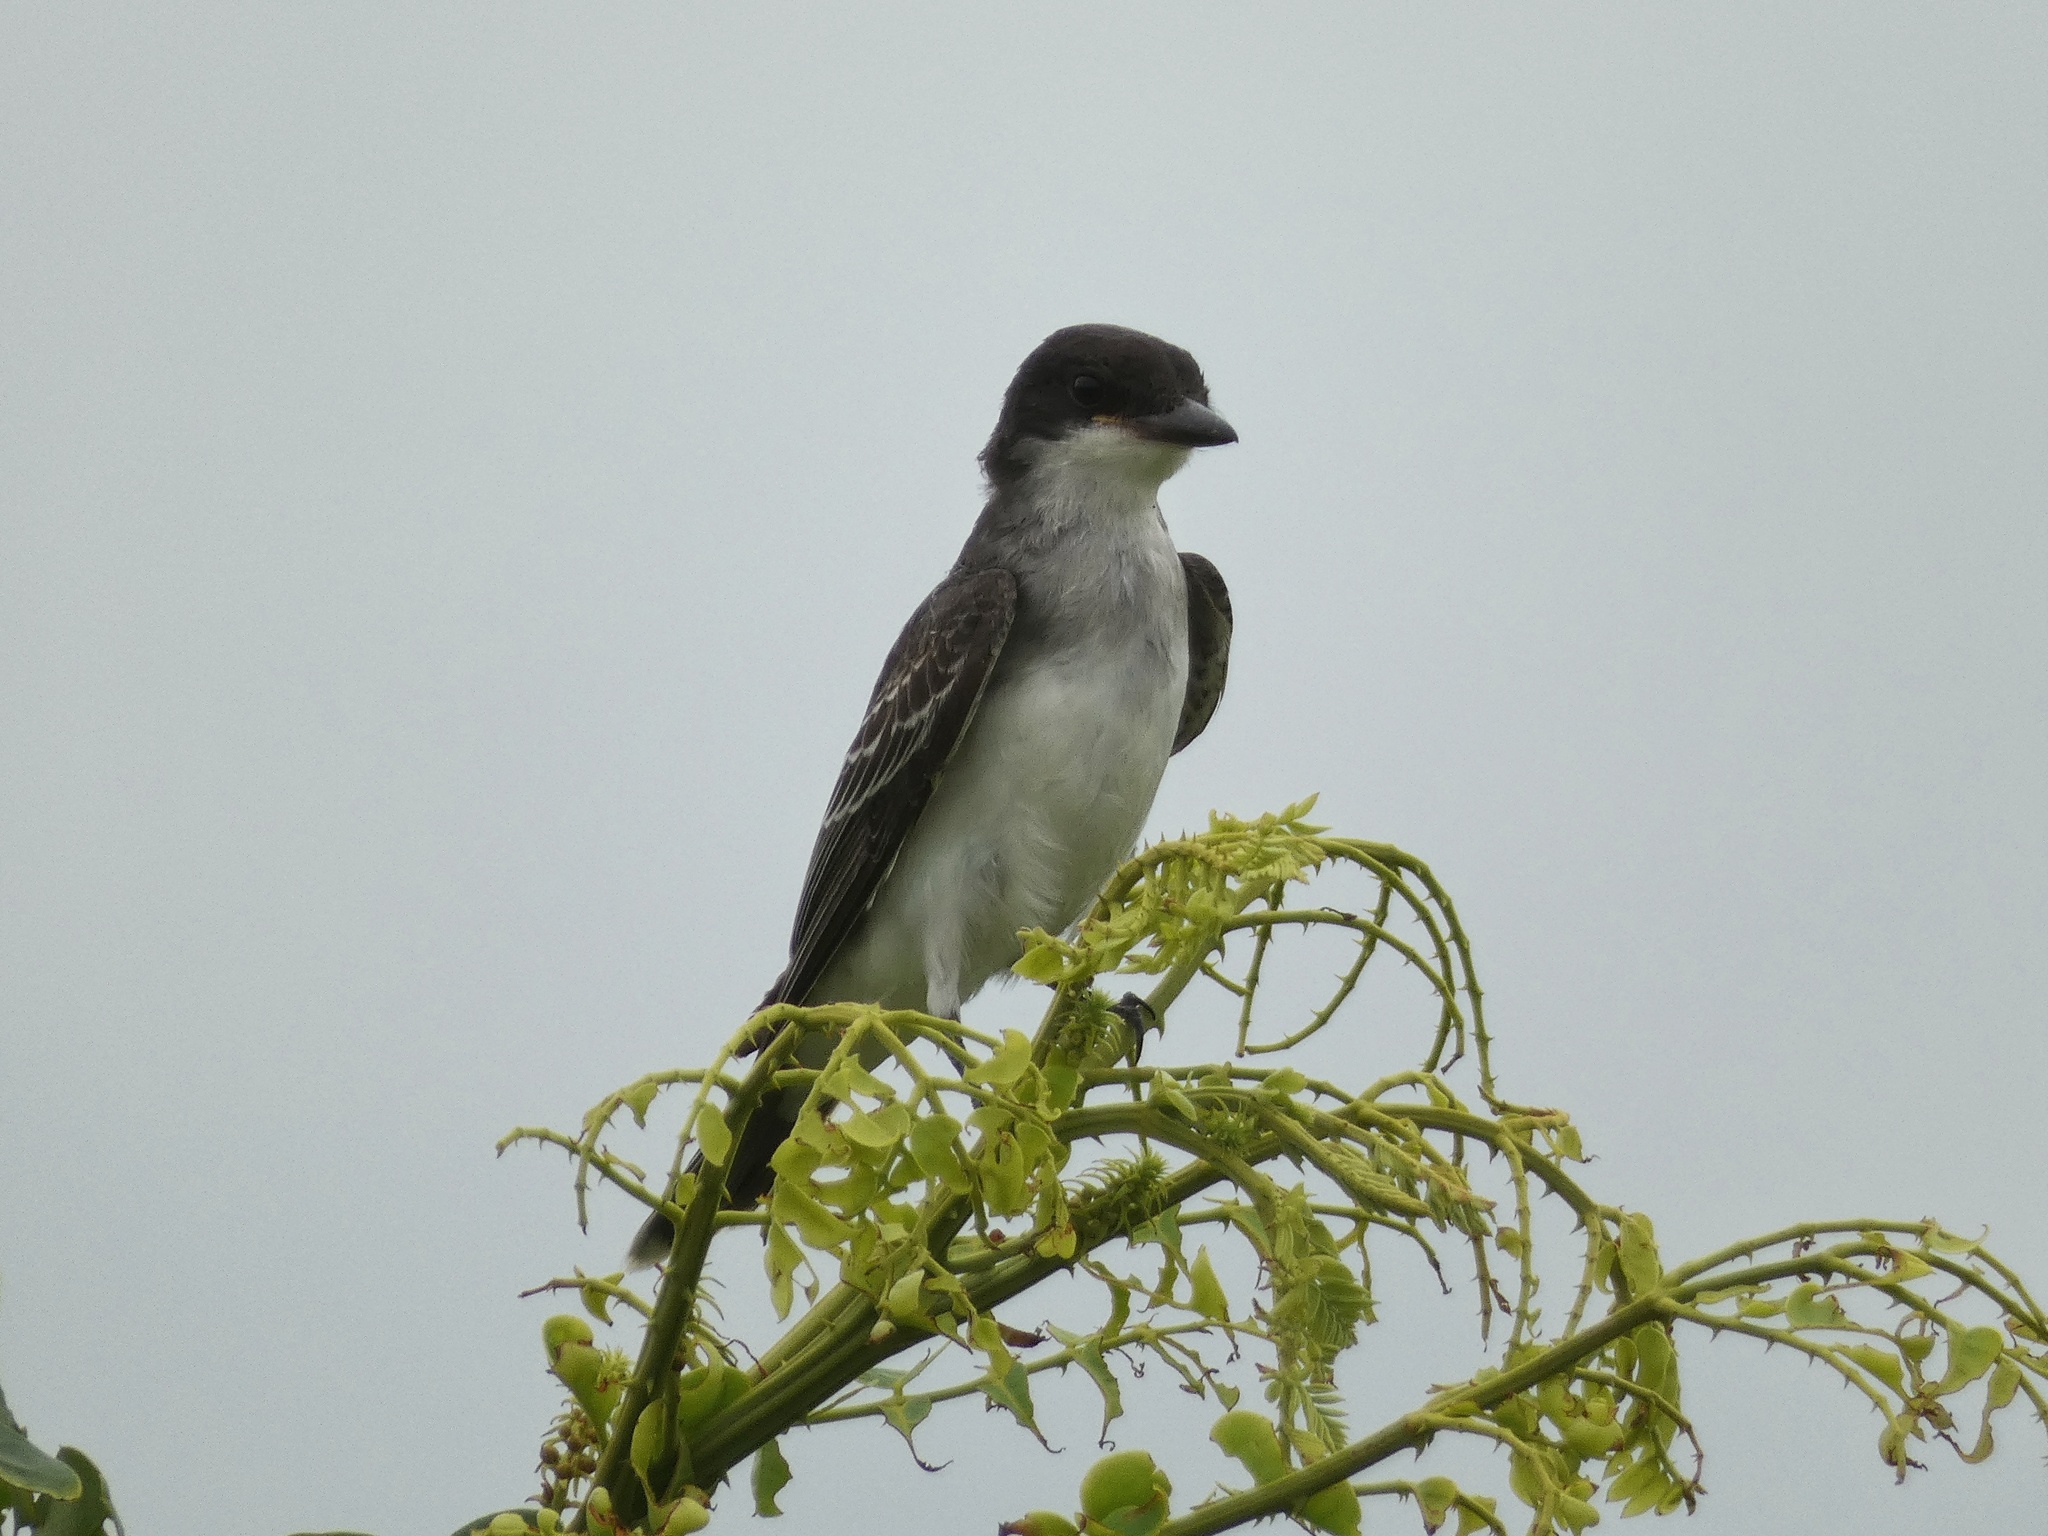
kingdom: Animalia
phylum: Chordata
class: Aves
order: Passeriformes
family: Tyrannidae
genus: Tyrannus
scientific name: Tyrannus tyrannus
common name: Eastern kingbird
